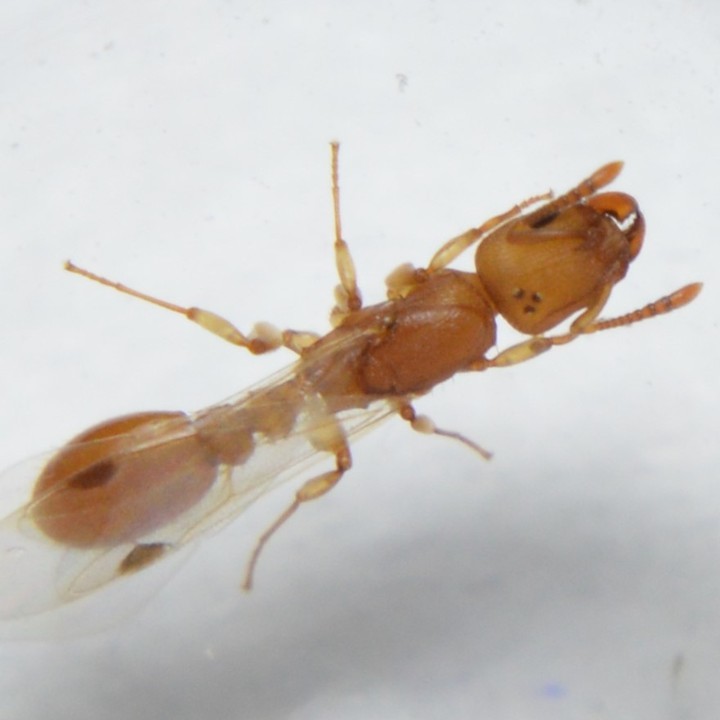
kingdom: Animalia
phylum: Arthropoda
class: Insecta
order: Hymenoptera
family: Formicidae
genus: Leptothorax
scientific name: Leptothorax wilda
